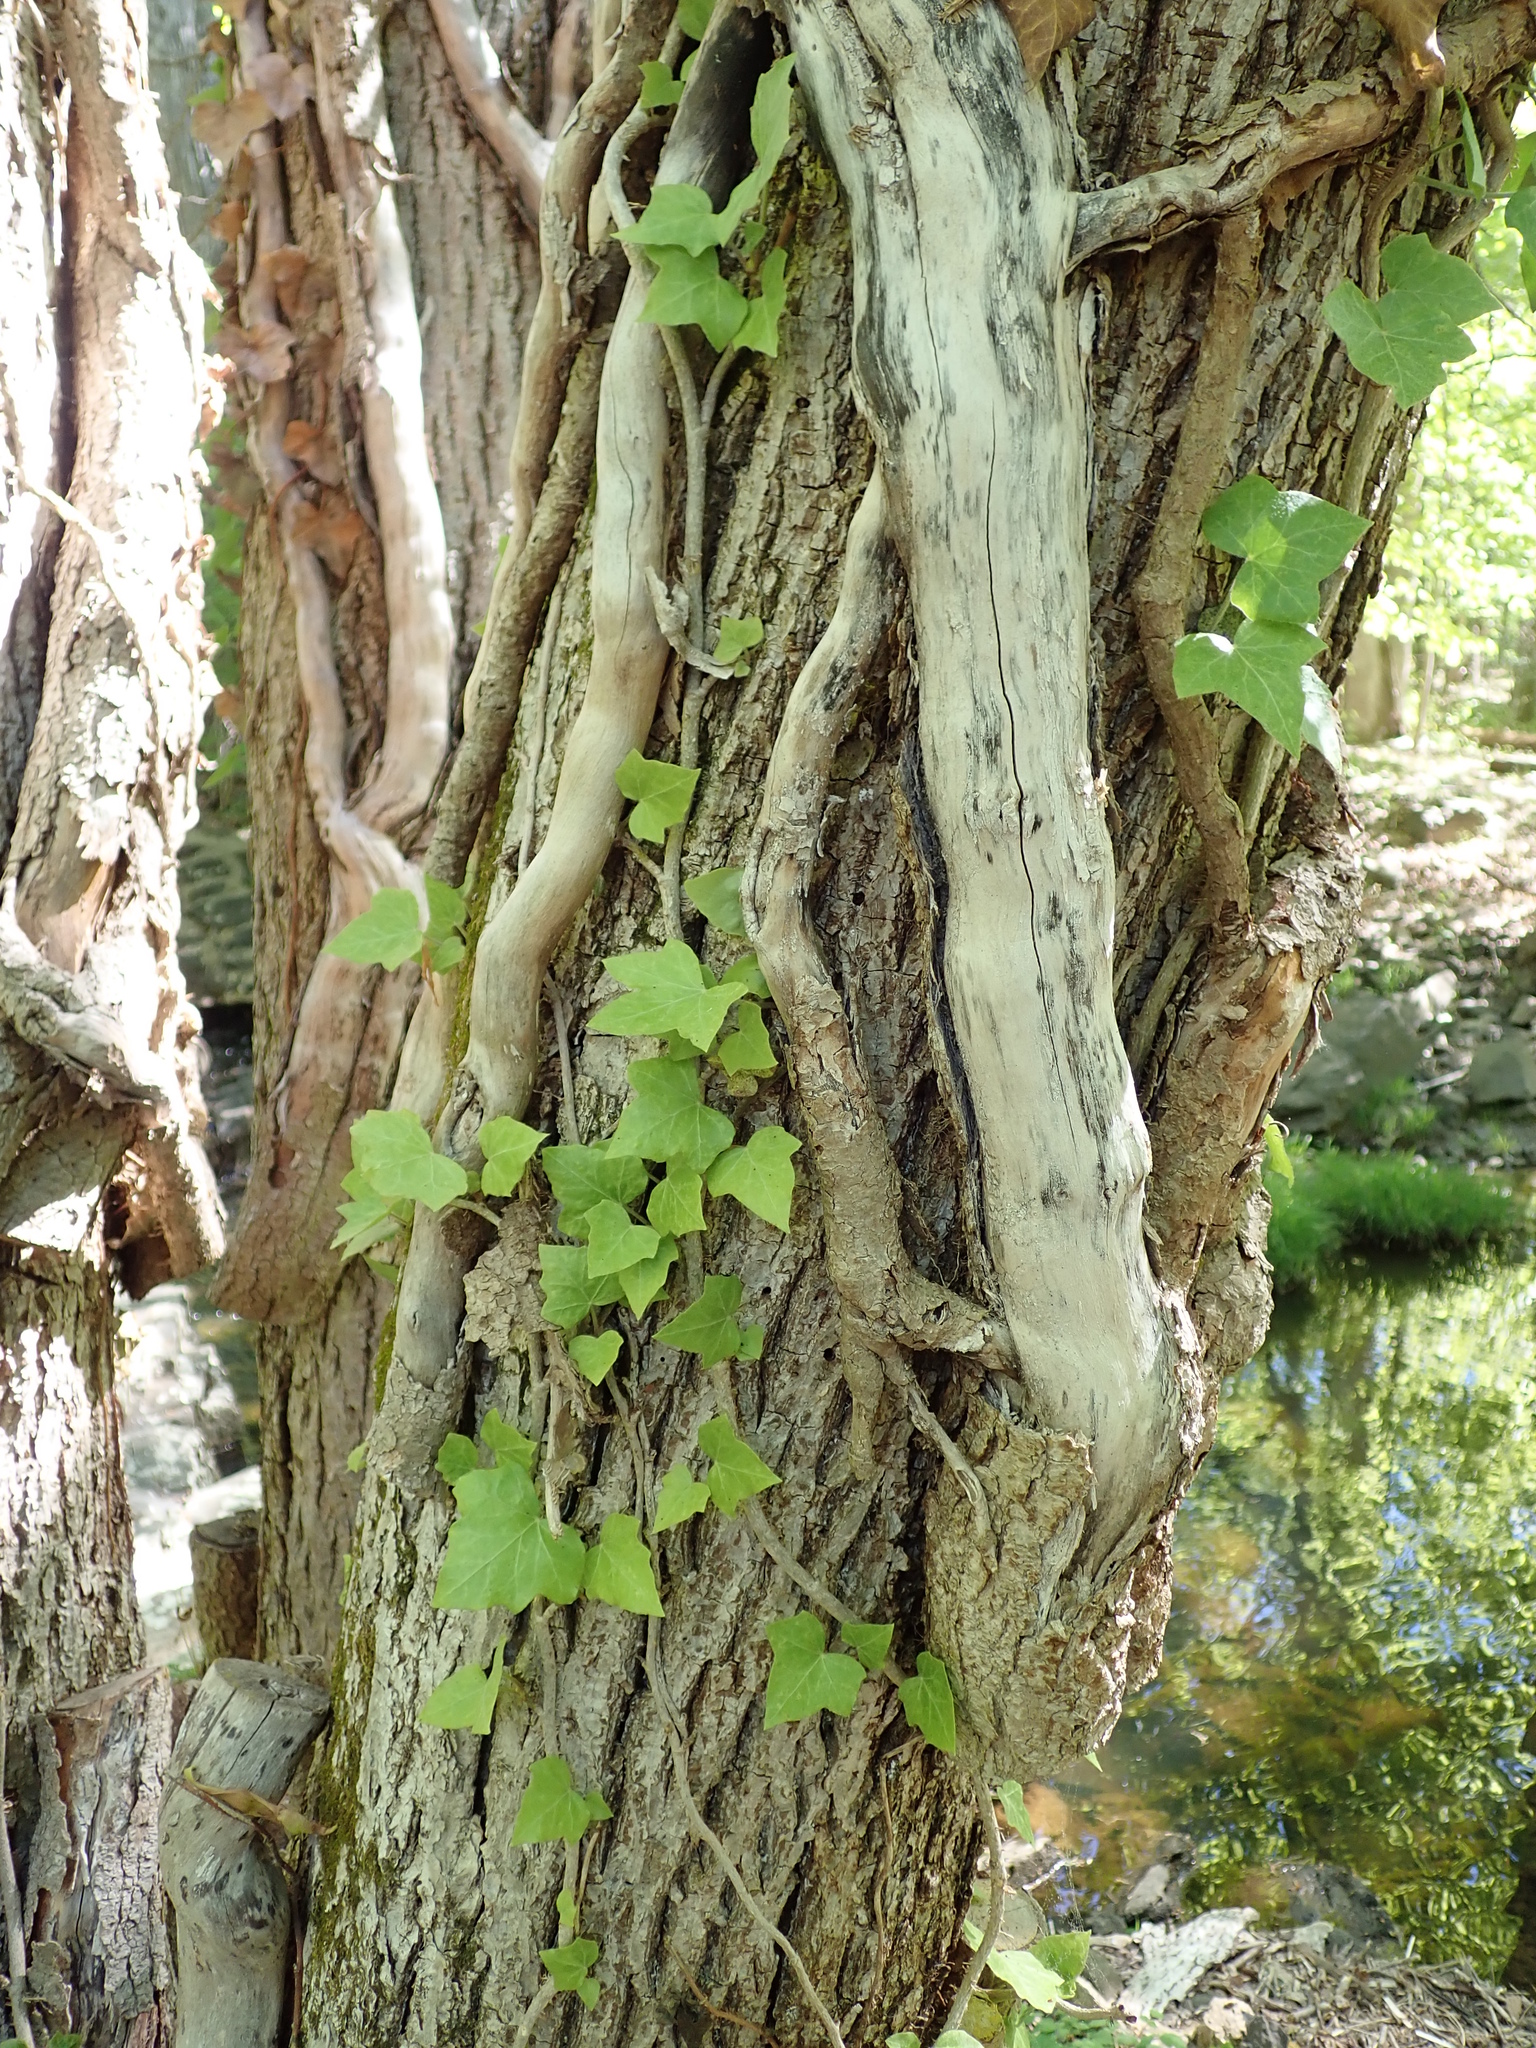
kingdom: Plantae
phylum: Tracheophyta
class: Magnoliopsida
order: Apiales
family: Araliaceae
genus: Hedera
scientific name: Hedera helix
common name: Ivy
